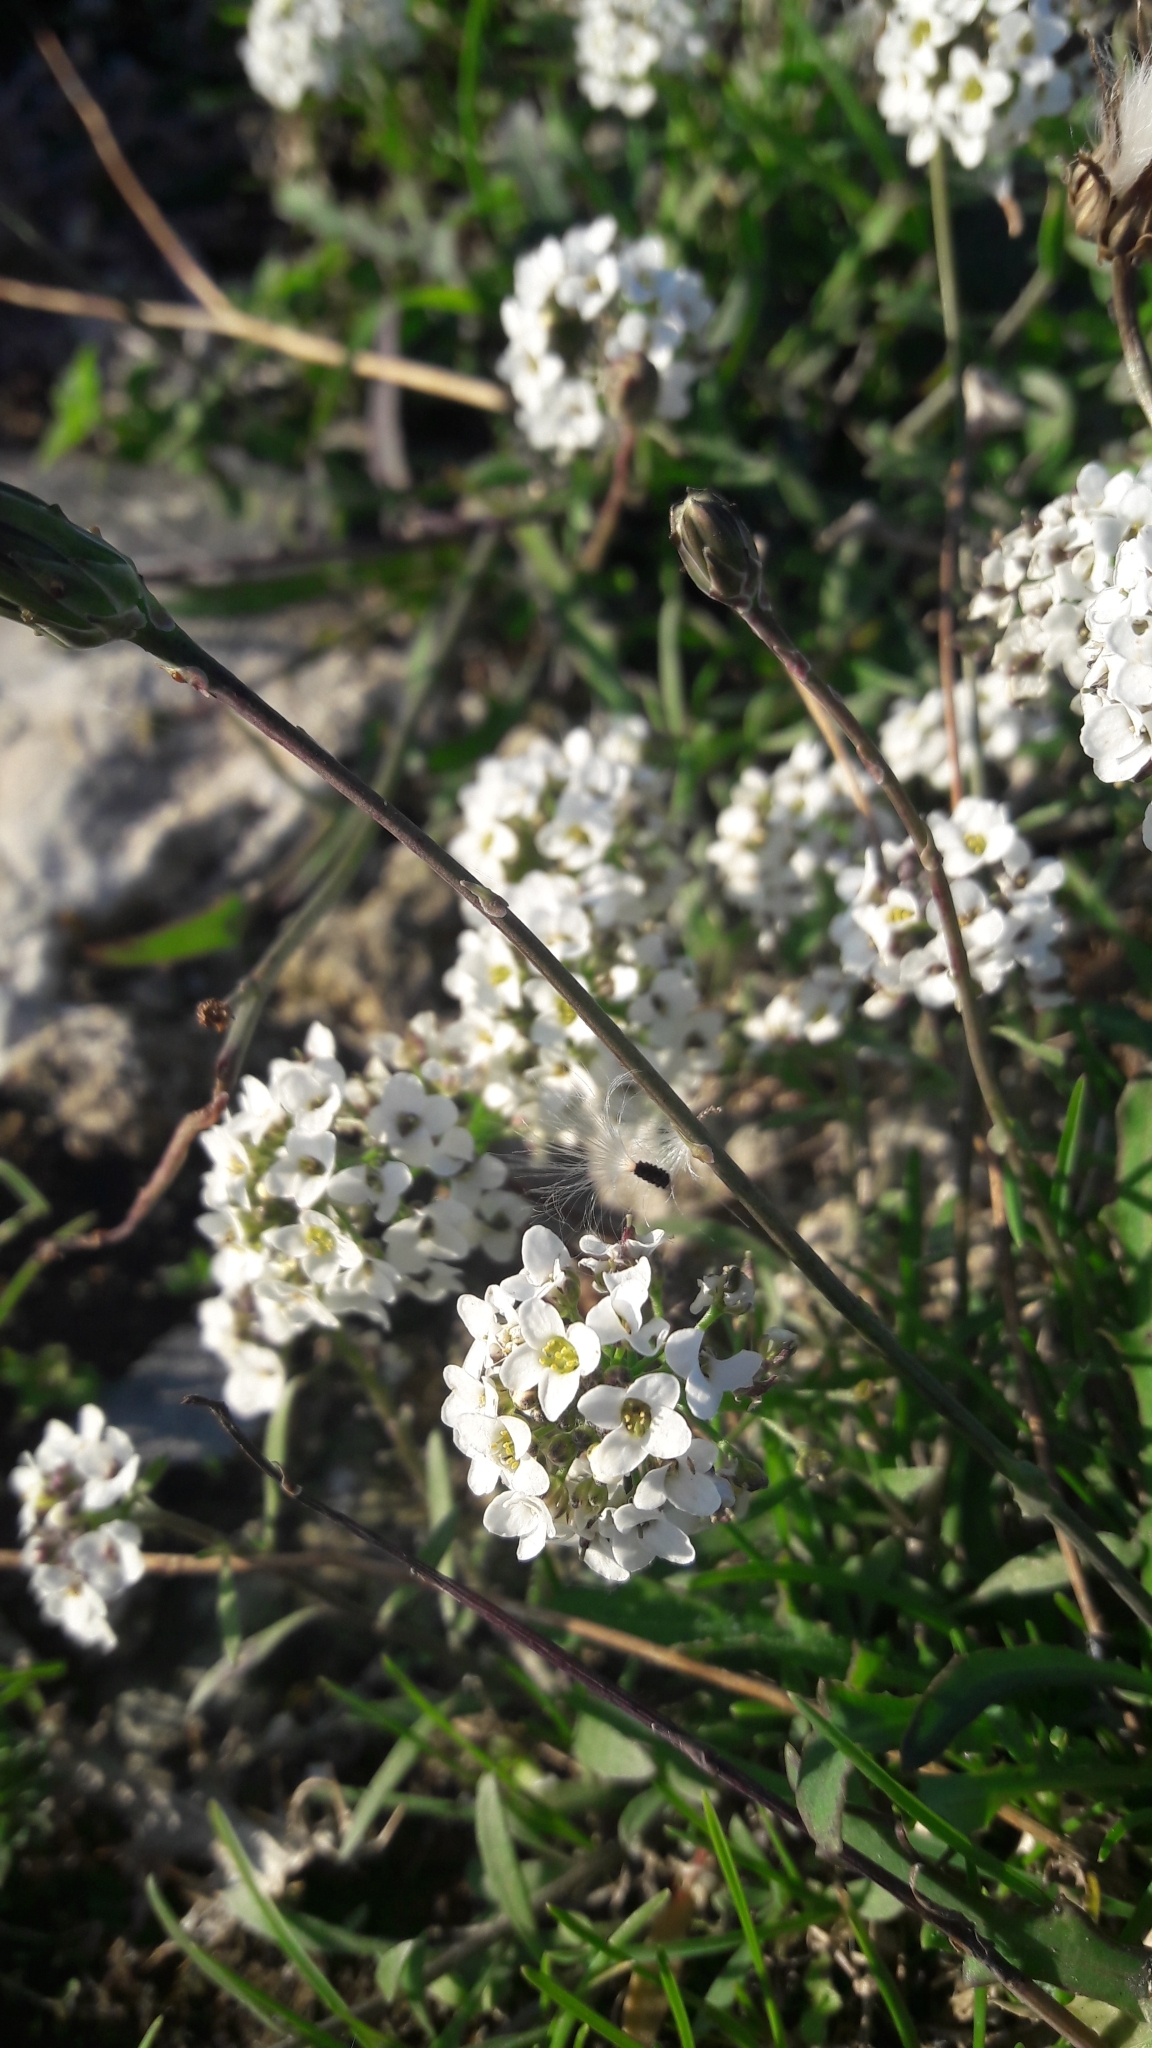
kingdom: Plantae
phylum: Tracheophyta
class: Magnoliopsida
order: Brassicales
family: Brassicaceae
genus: Lobularia
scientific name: Lobularia maritima
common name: Sweet alison
